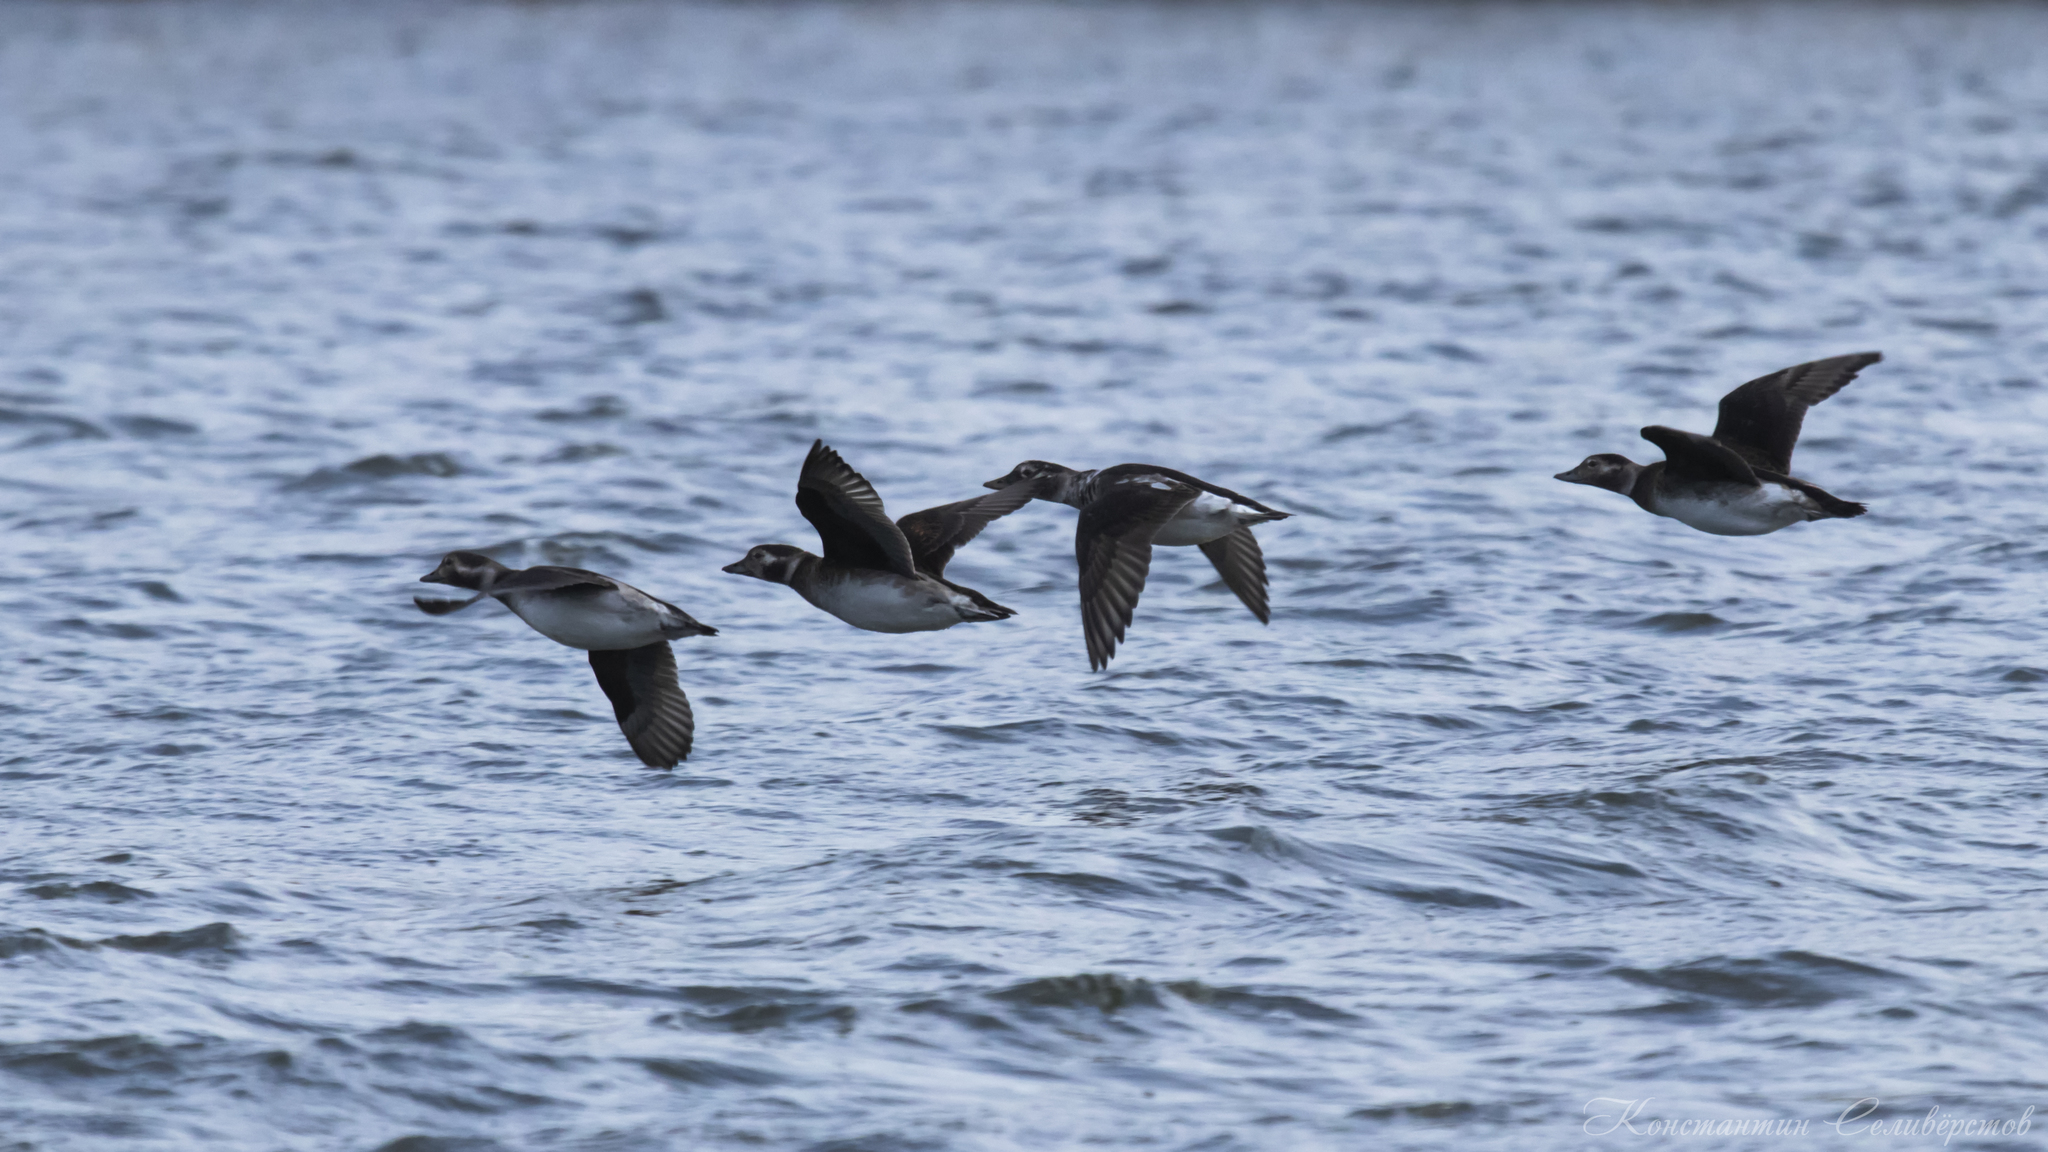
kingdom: Animalia
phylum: Chordata
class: Aves
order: Anseriformes
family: Anatidae
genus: Clangula
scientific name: Clangula hyemalis
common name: Long-tailed duck
